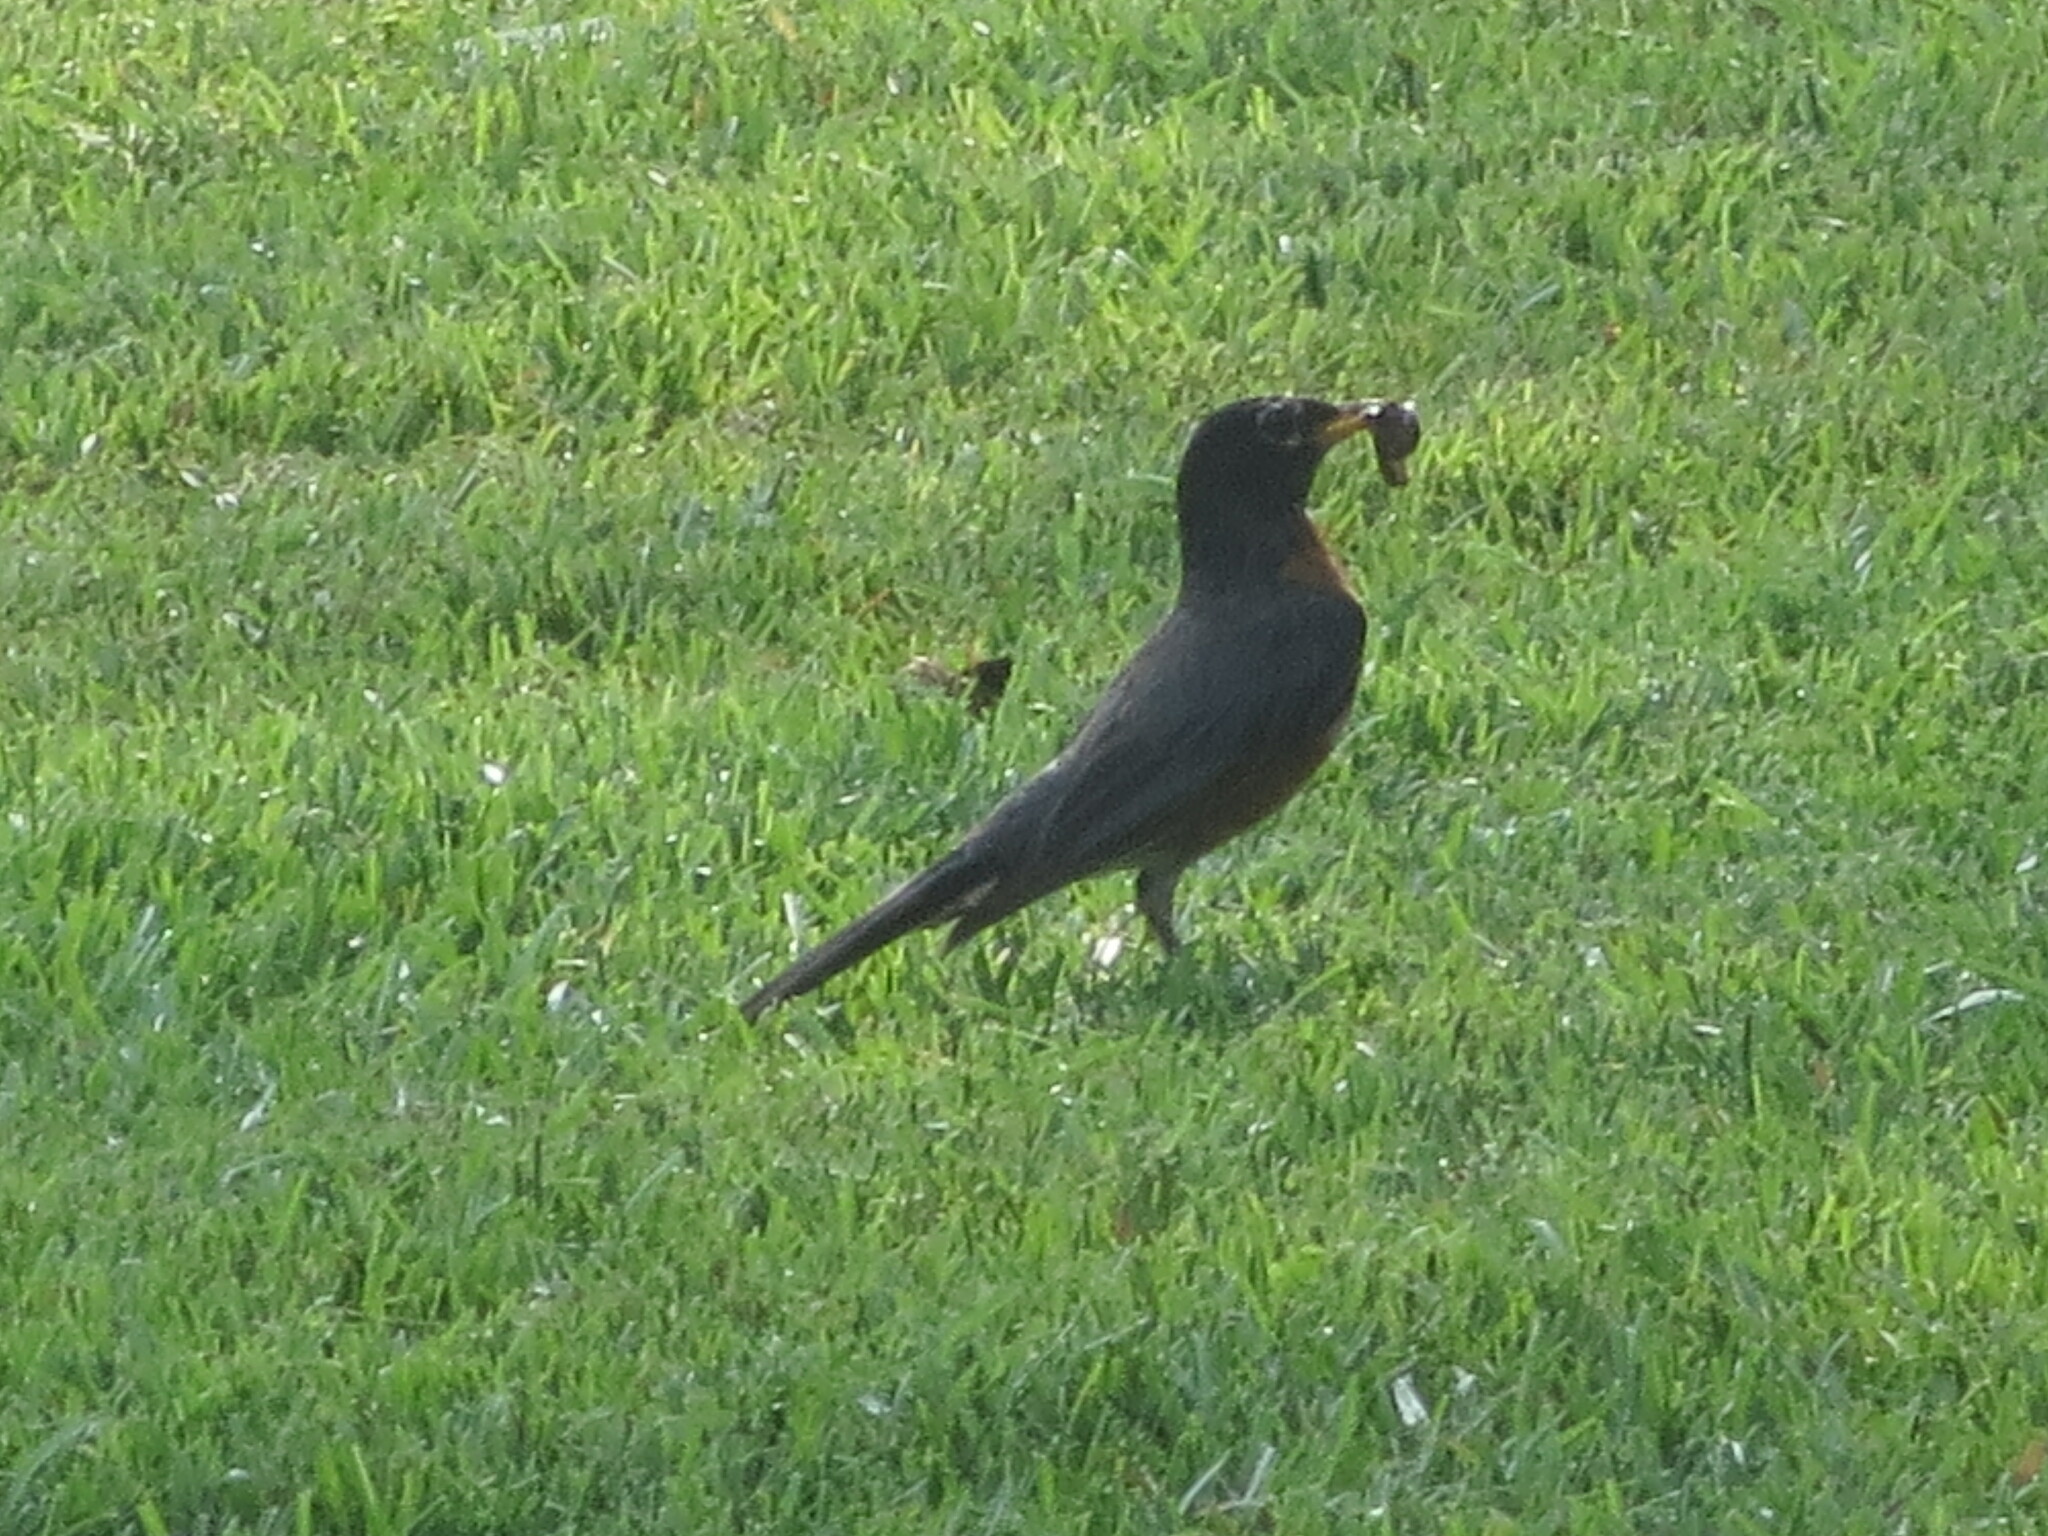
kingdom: Animalia
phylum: Chordata
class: Aves
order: Passeriformes
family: Turdidae
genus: Turdus
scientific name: Turdus migratorius
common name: American robin
